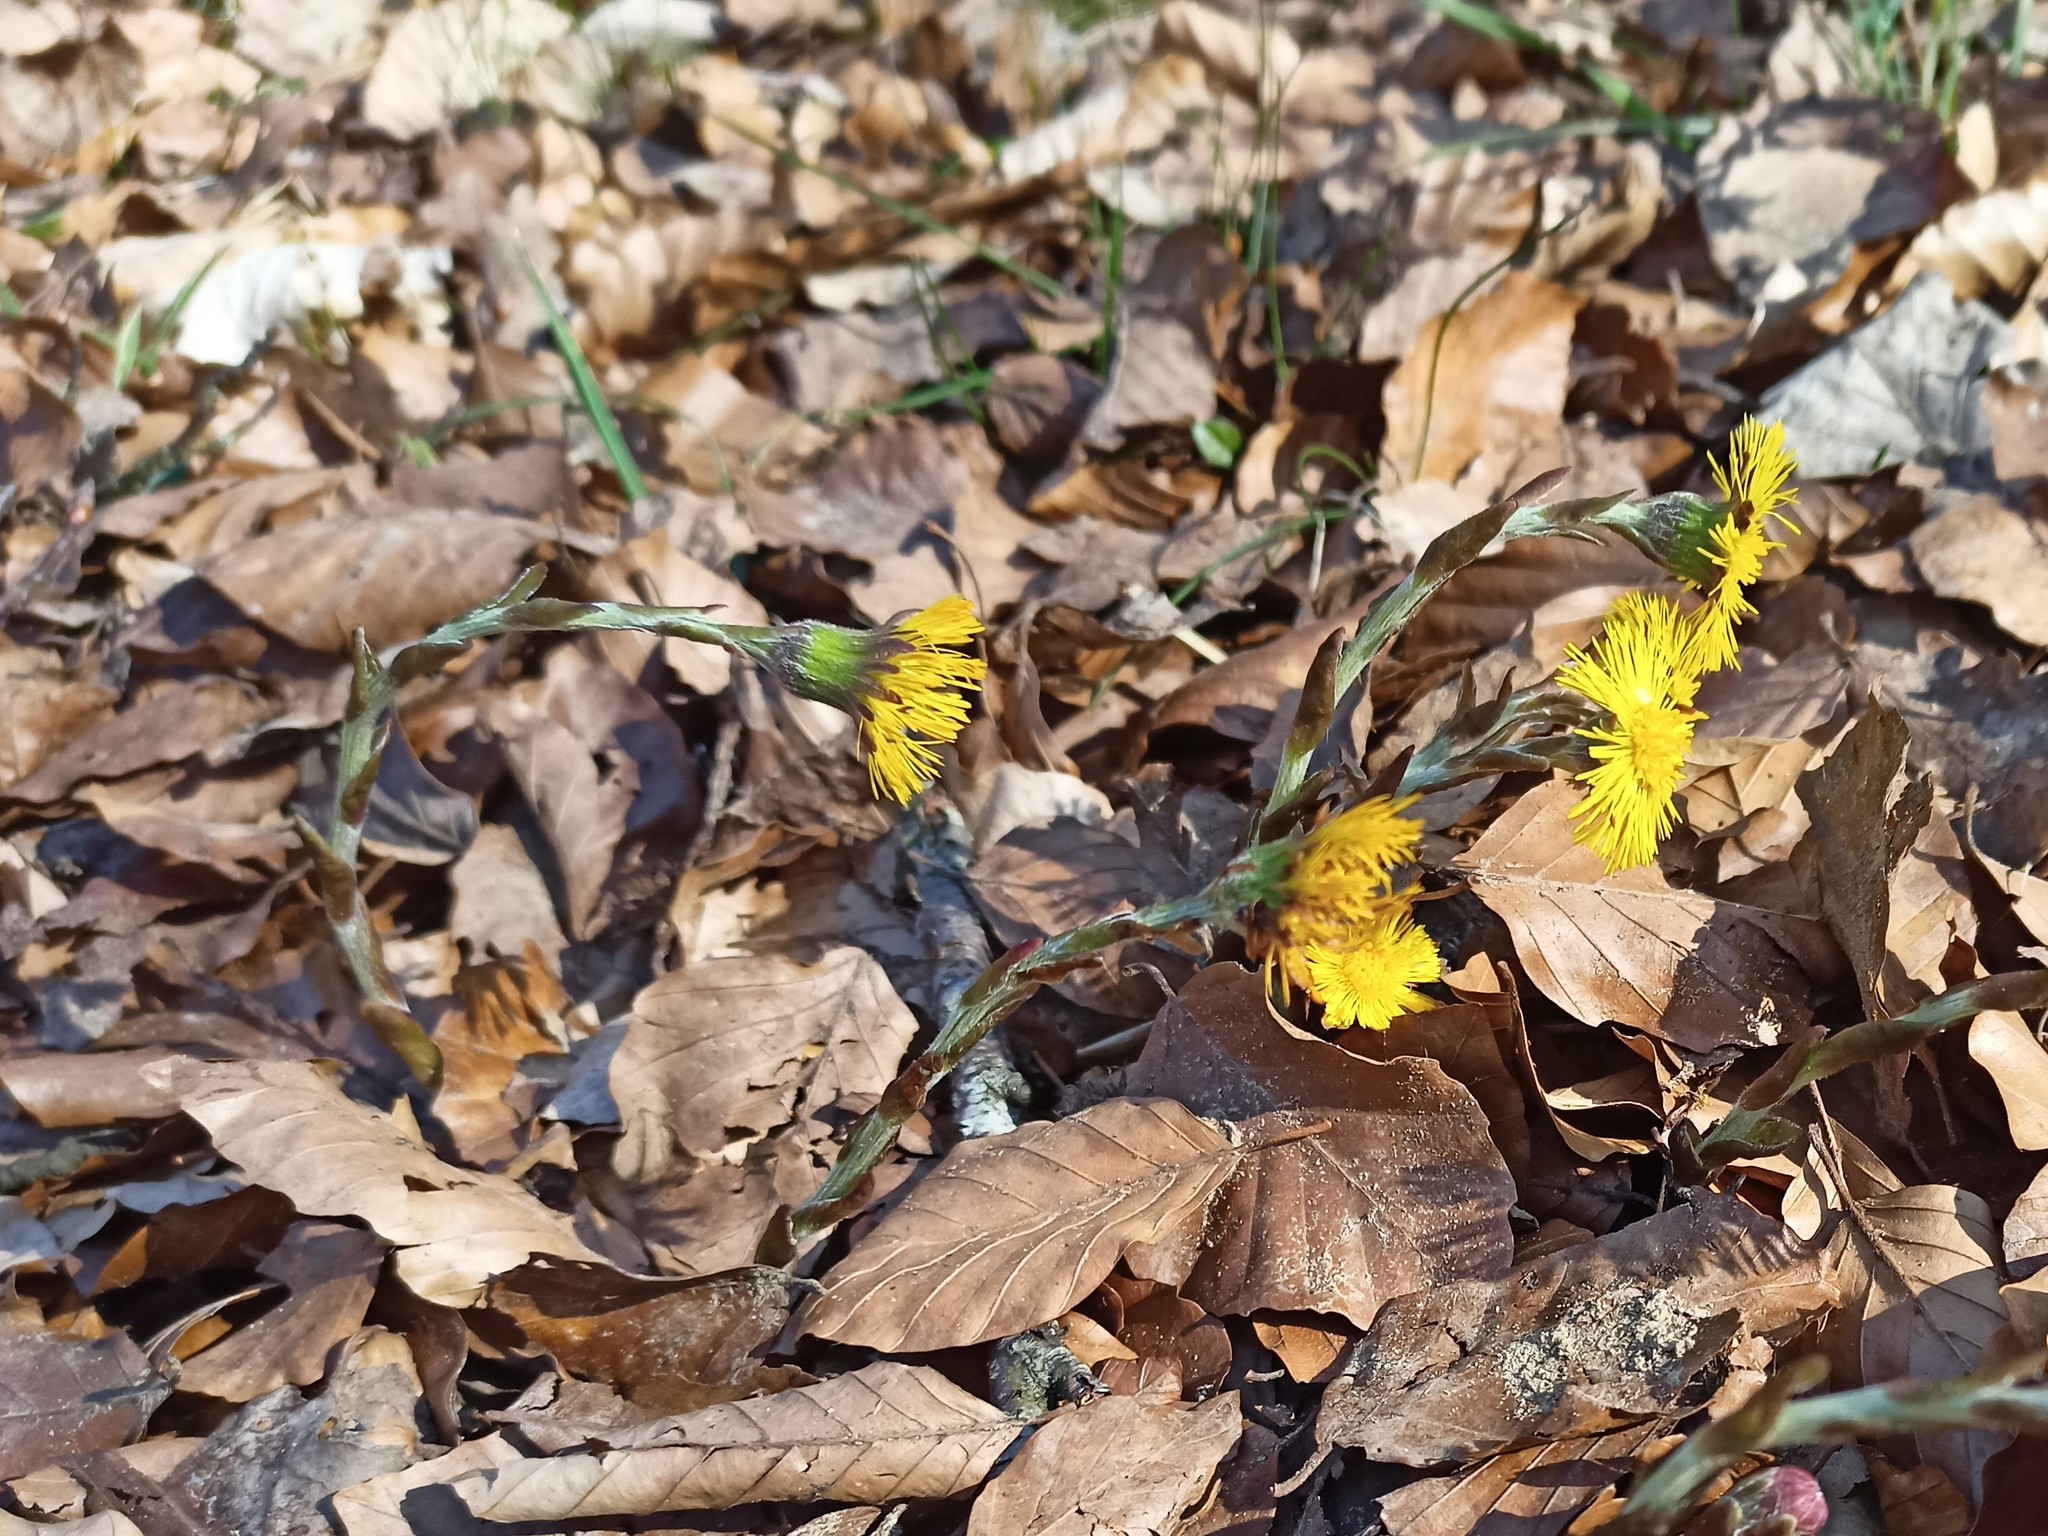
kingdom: Plantae
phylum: Tracheophyta
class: Magnoliopsida
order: Asterales
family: Asteraceae
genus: Tussilago
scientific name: Tussilago farfara
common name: Coltsfoot
